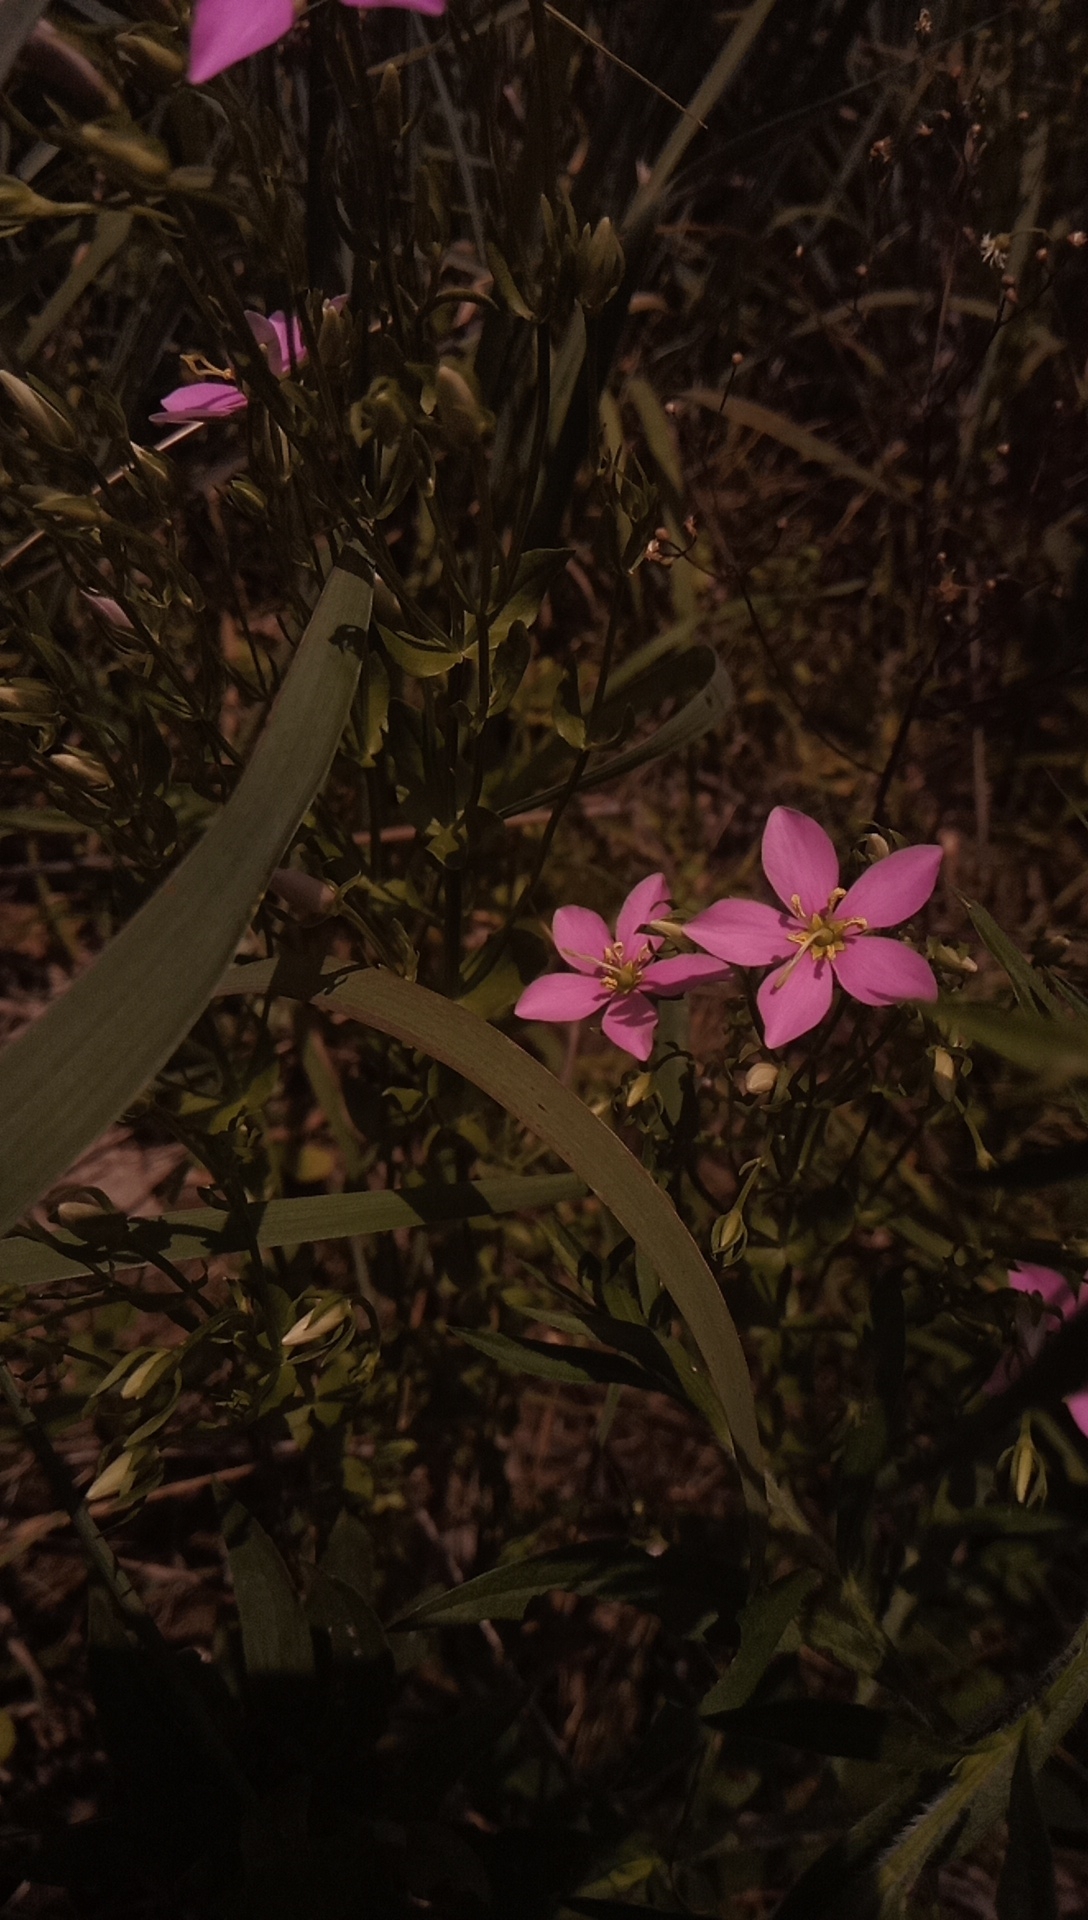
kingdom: Plantae
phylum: Tracheophyta
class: Magnoliopsida
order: Gentianales
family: Gentianaceae
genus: Sabatia
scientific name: Sabatia angularis
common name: Rose-pink
